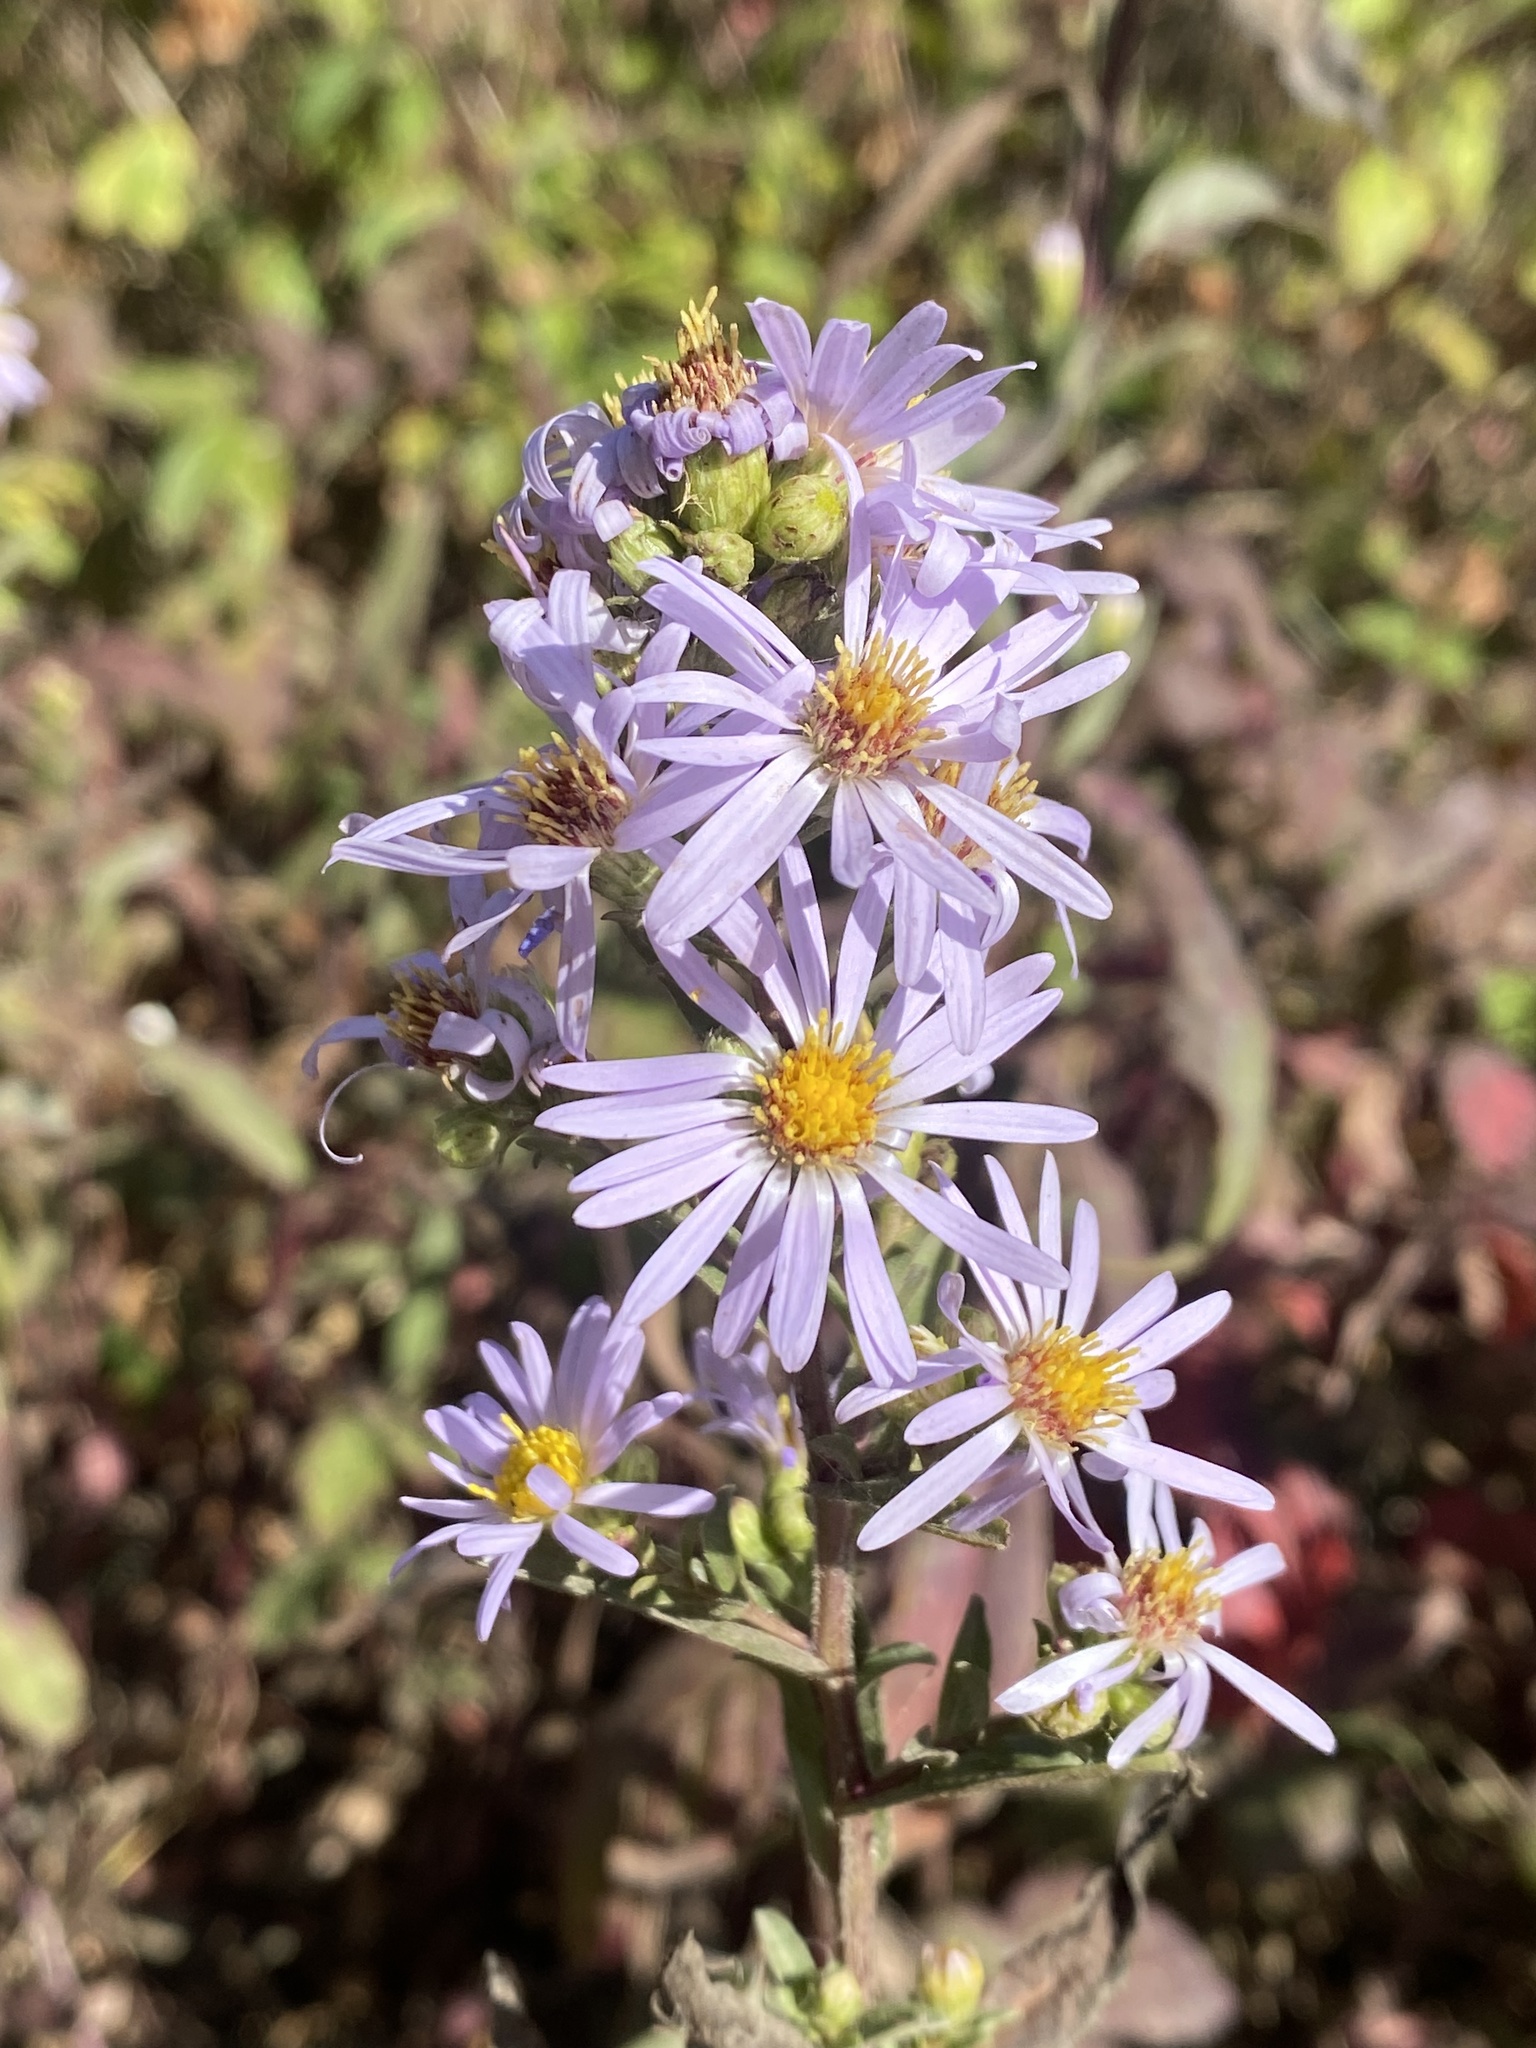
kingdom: Plantae
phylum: Tracheophyta
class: Magnoliopsida
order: Asterales
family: Asteraceae
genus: Symphyotrichum
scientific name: Symphyotrichum chilense
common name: Pacific aster
